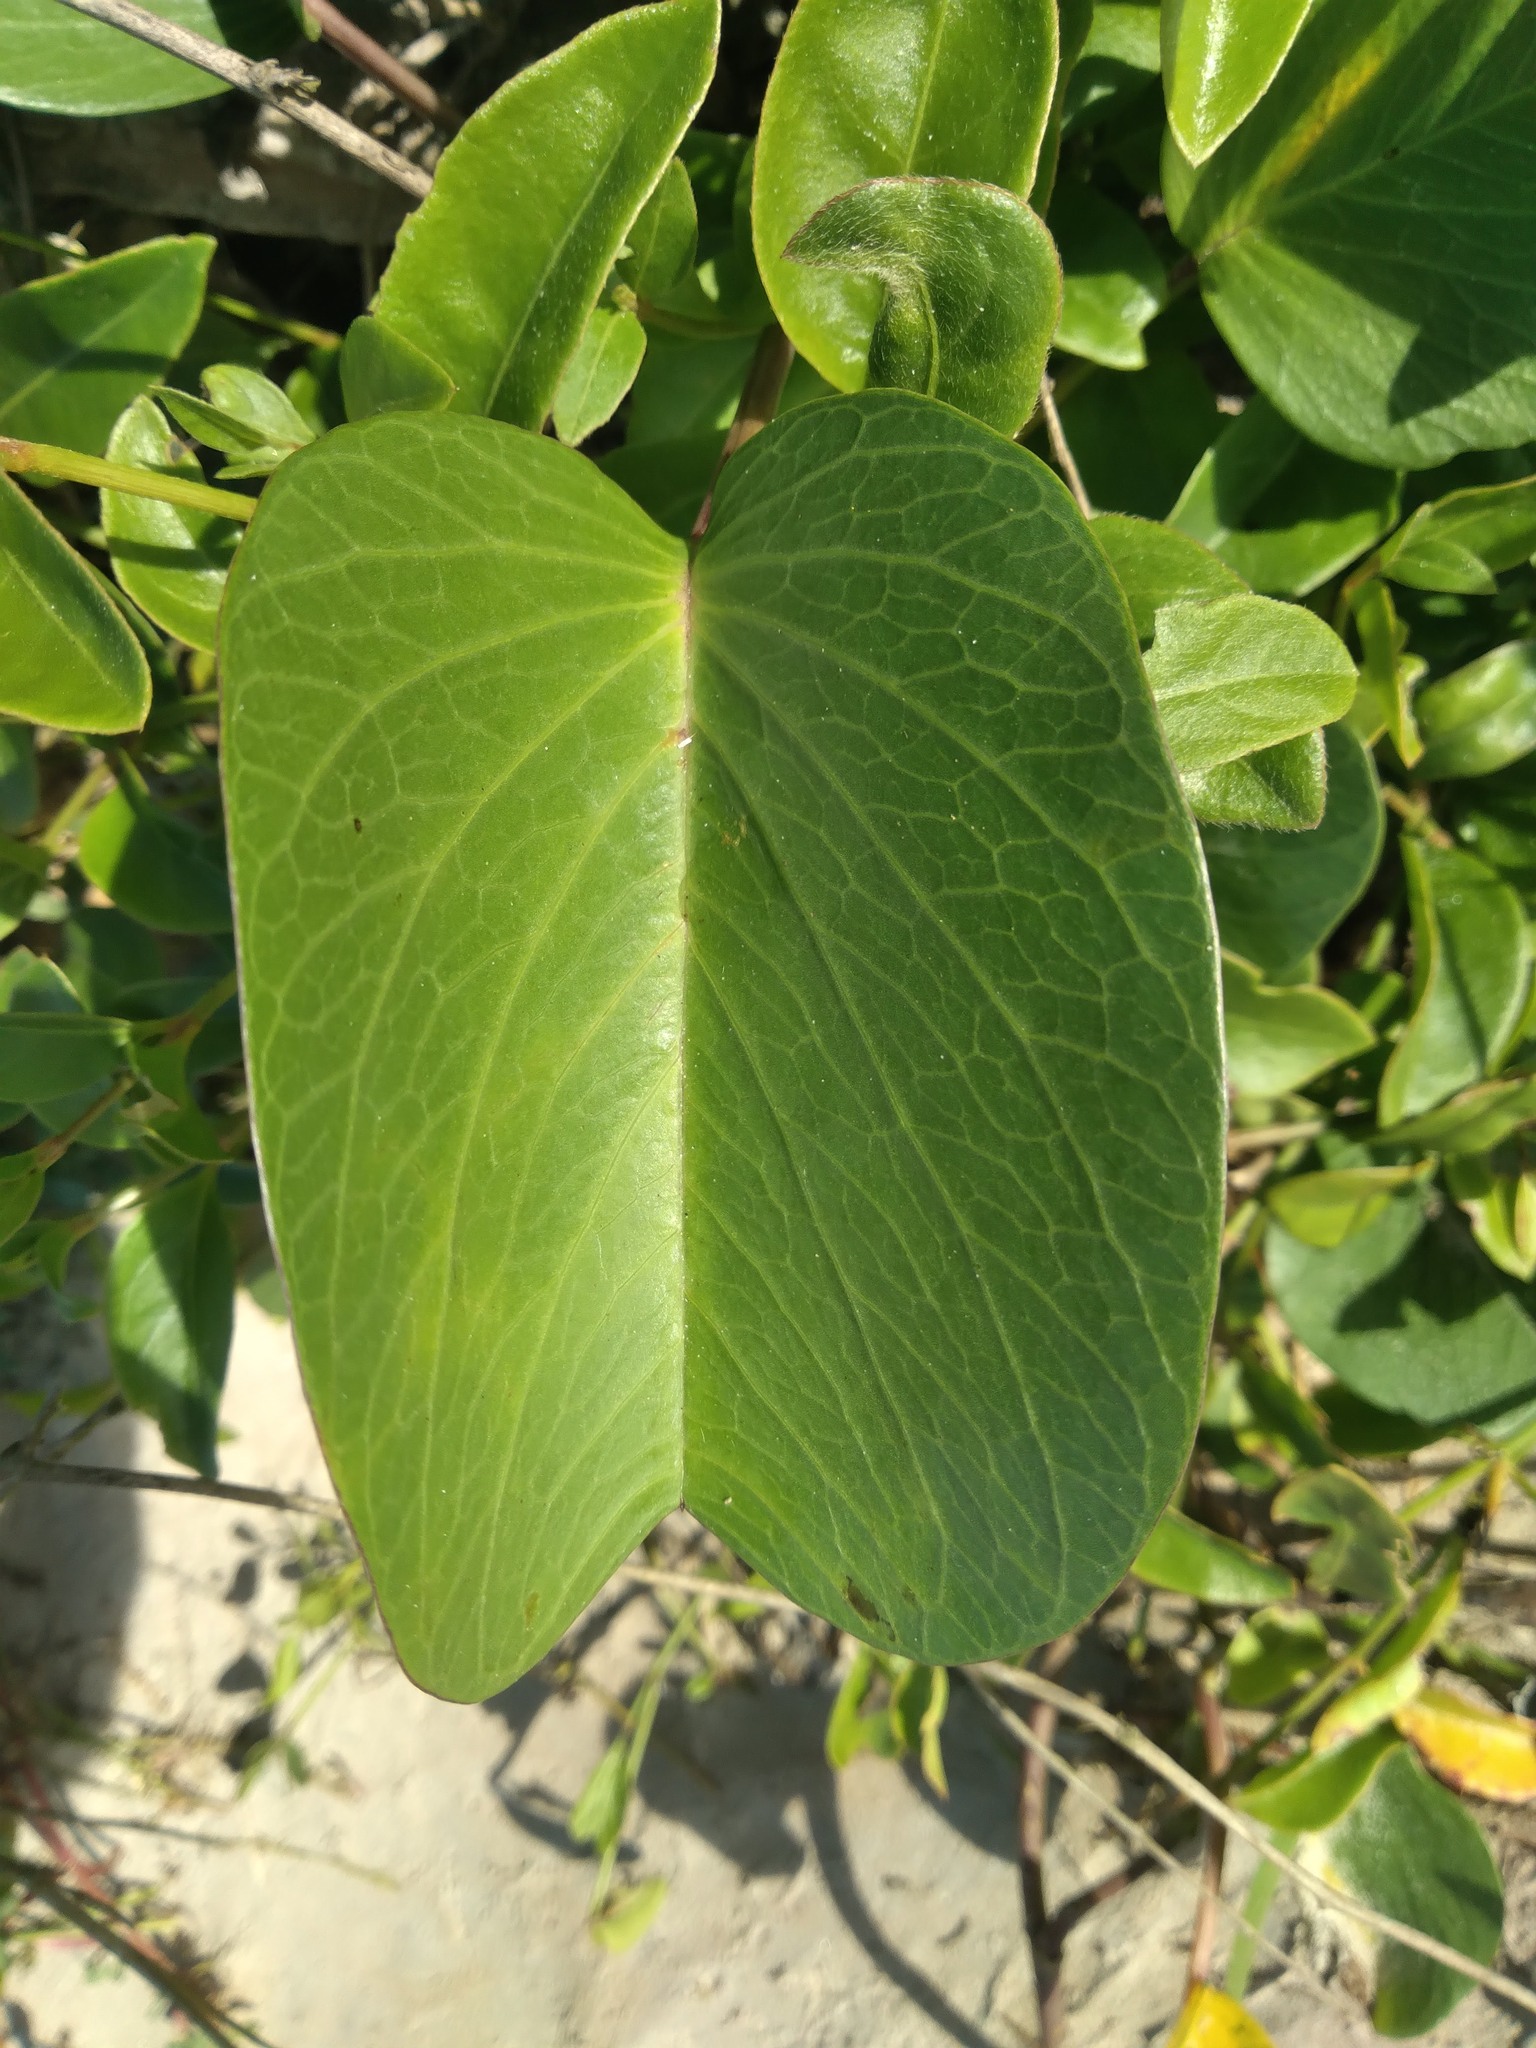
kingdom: Plantae
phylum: Tracheophyta
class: Magnoliopsida
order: Solanales
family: Convolvulaceae
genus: Ipomoea
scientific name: Ipomoea pes-caprae
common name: Beach morning glory
